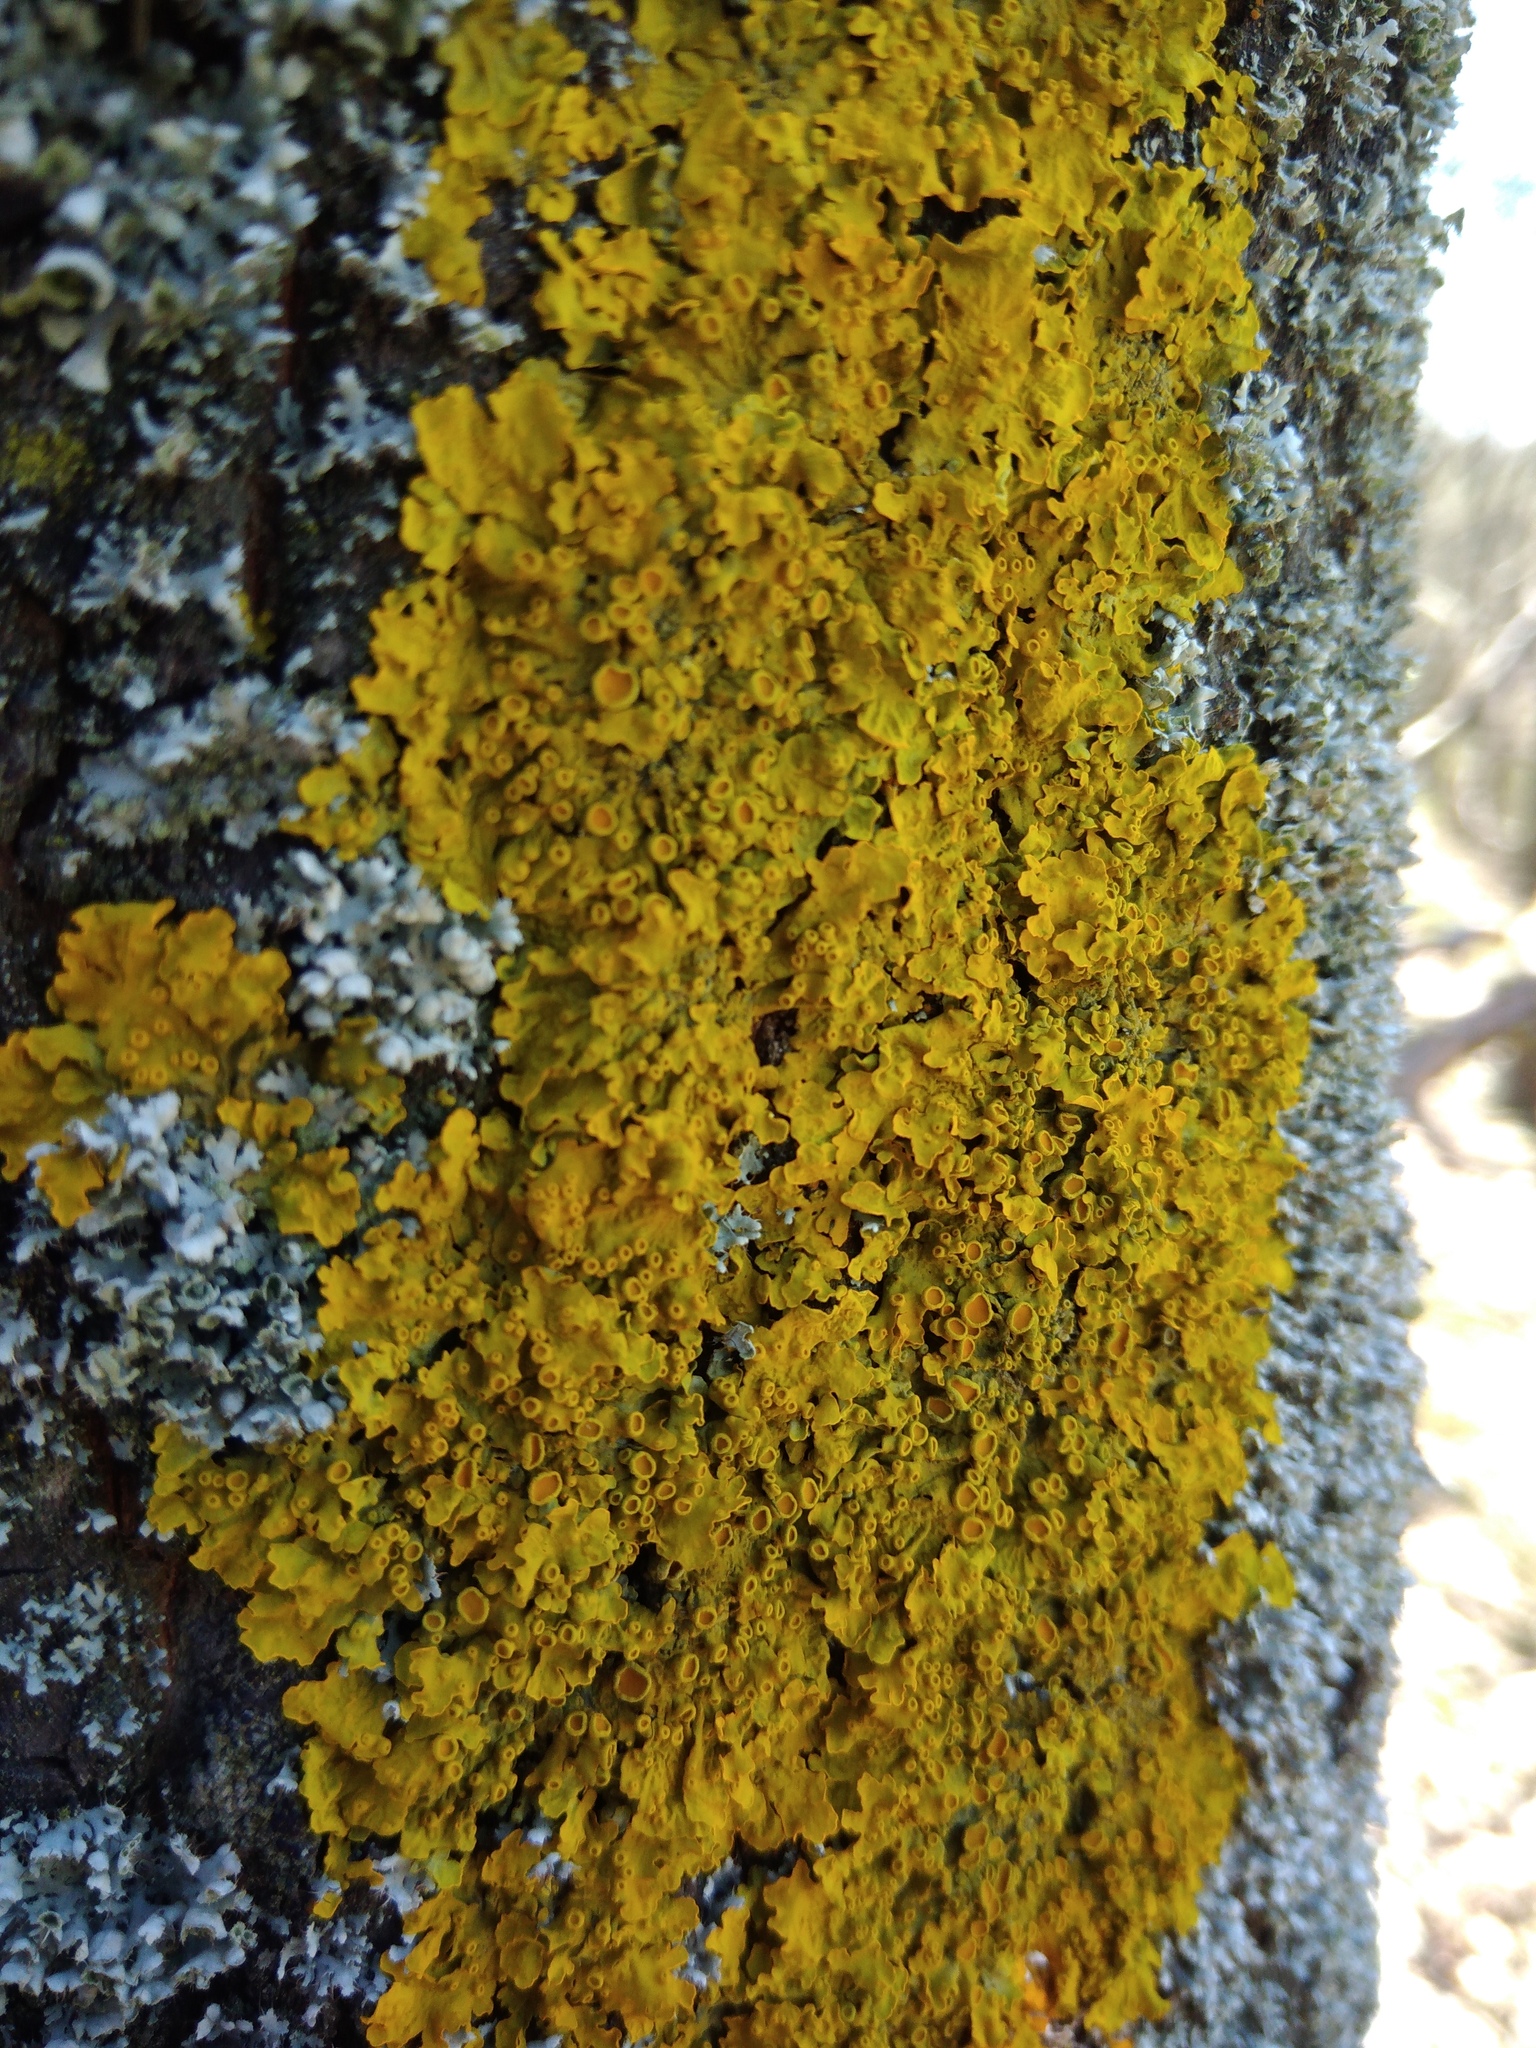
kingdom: Fungi
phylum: Ascomycota
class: Lecanoromycetes
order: Teloschistales
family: Teloschistaceae
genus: Xanthoria
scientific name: Xanthoria parietina
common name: Common orange lichen
